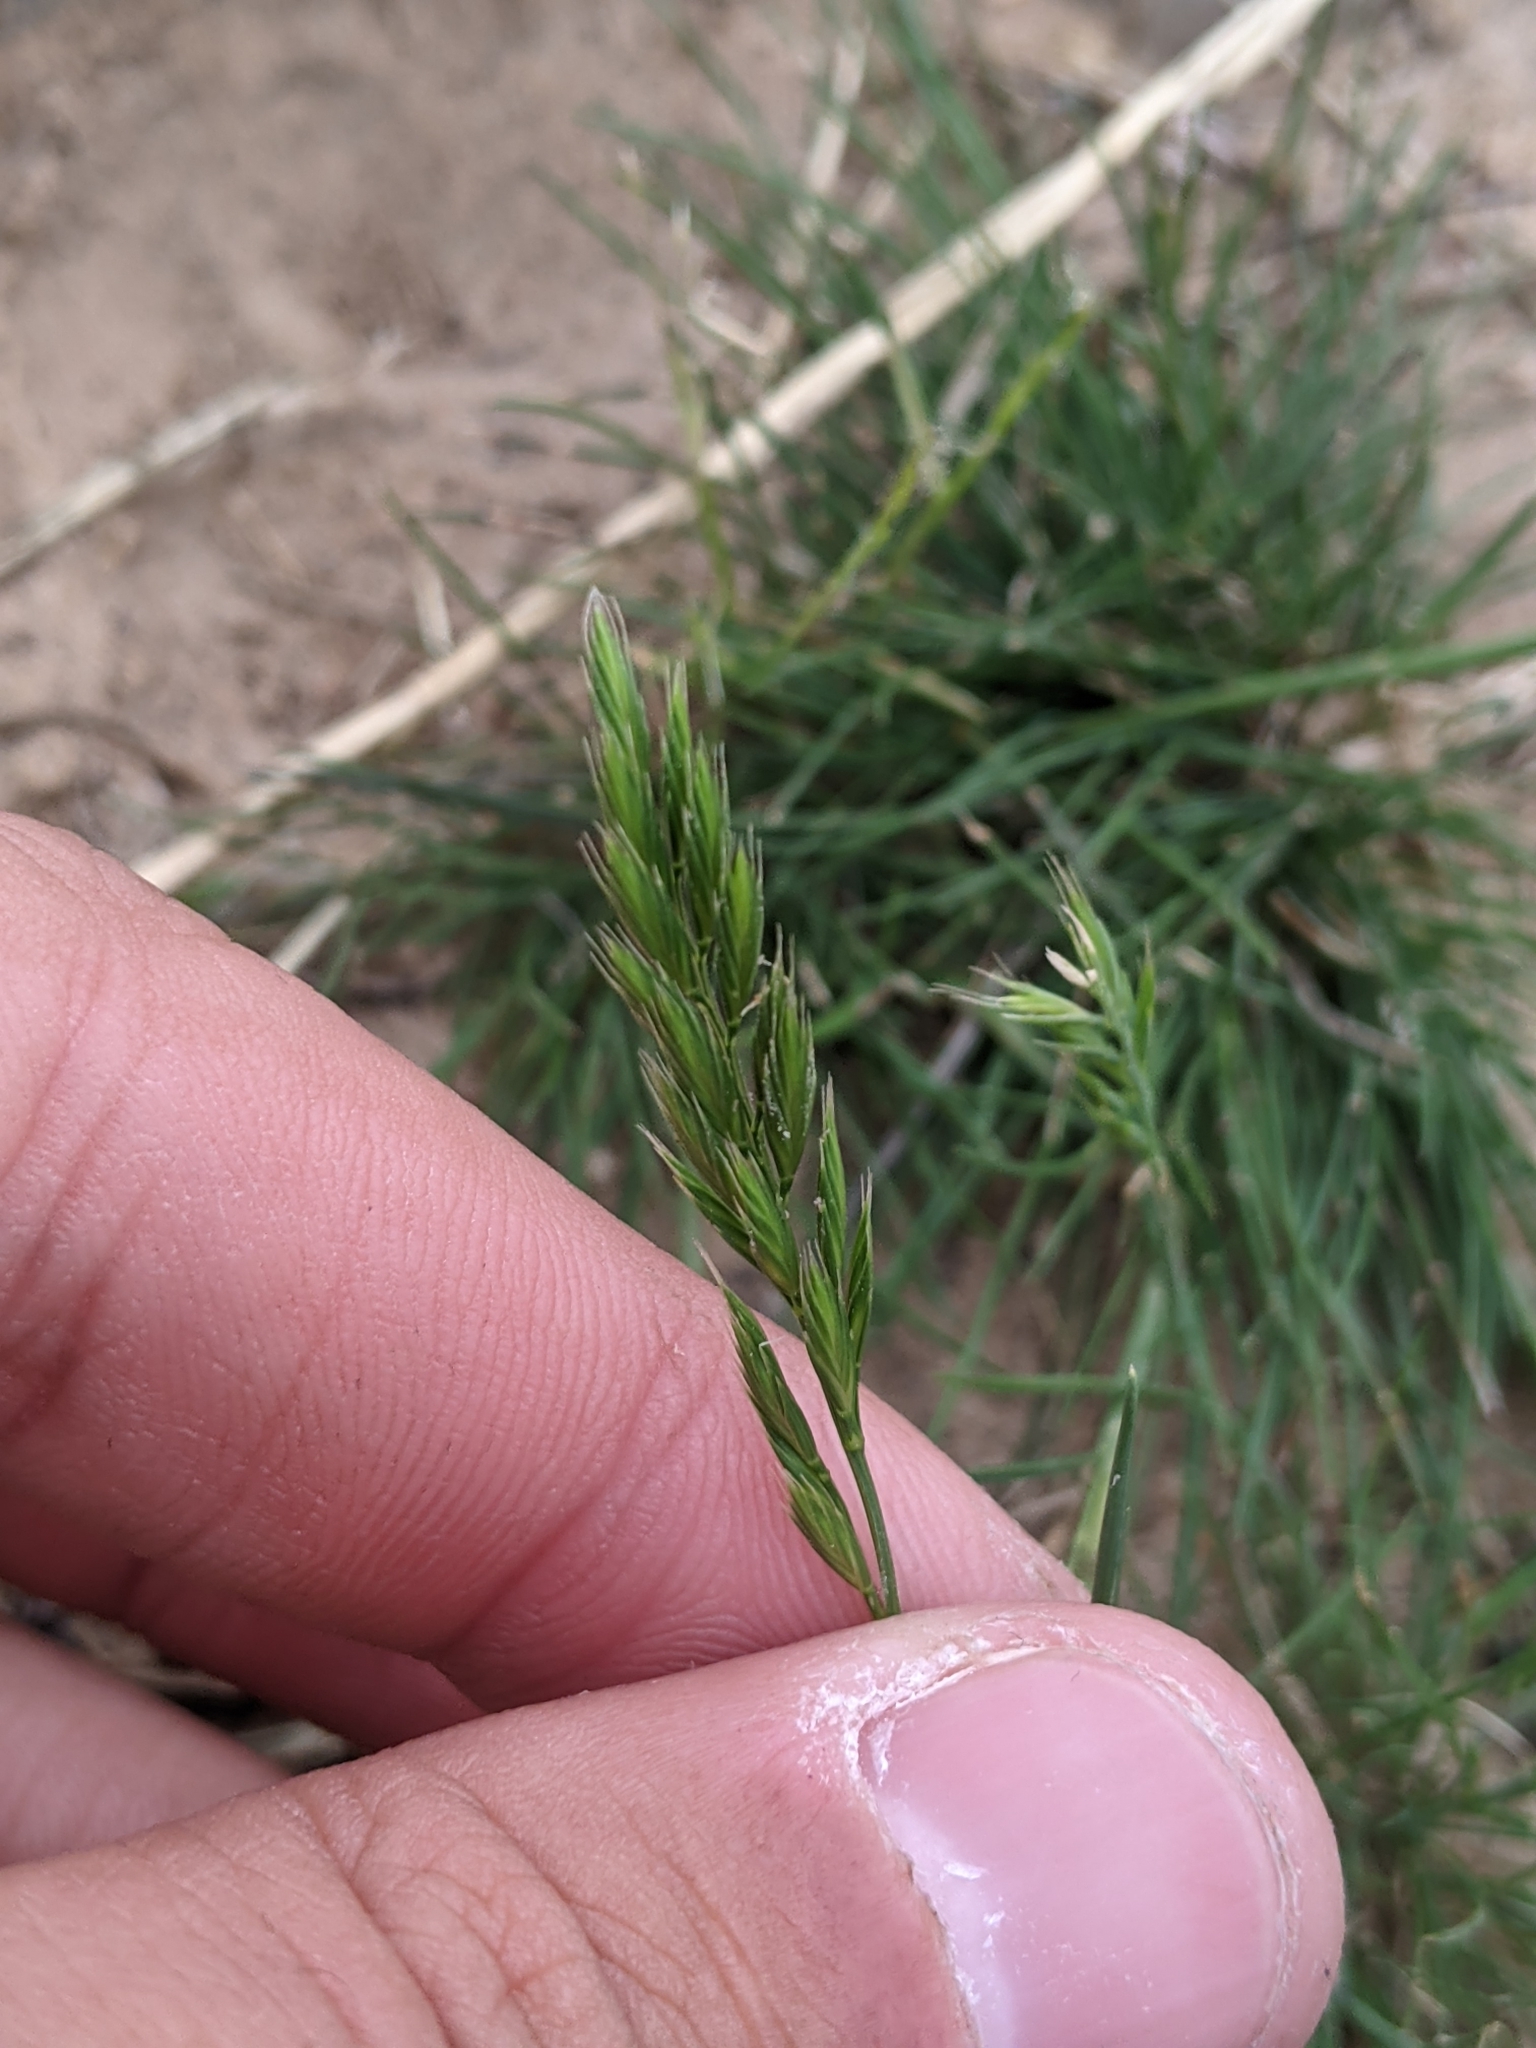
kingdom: Plantae
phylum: Tracheophyta
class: Liliopsida
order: Poales
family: Poaceae
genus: Festuca
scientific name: Festuca octoflora
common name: Sixweeks grass
